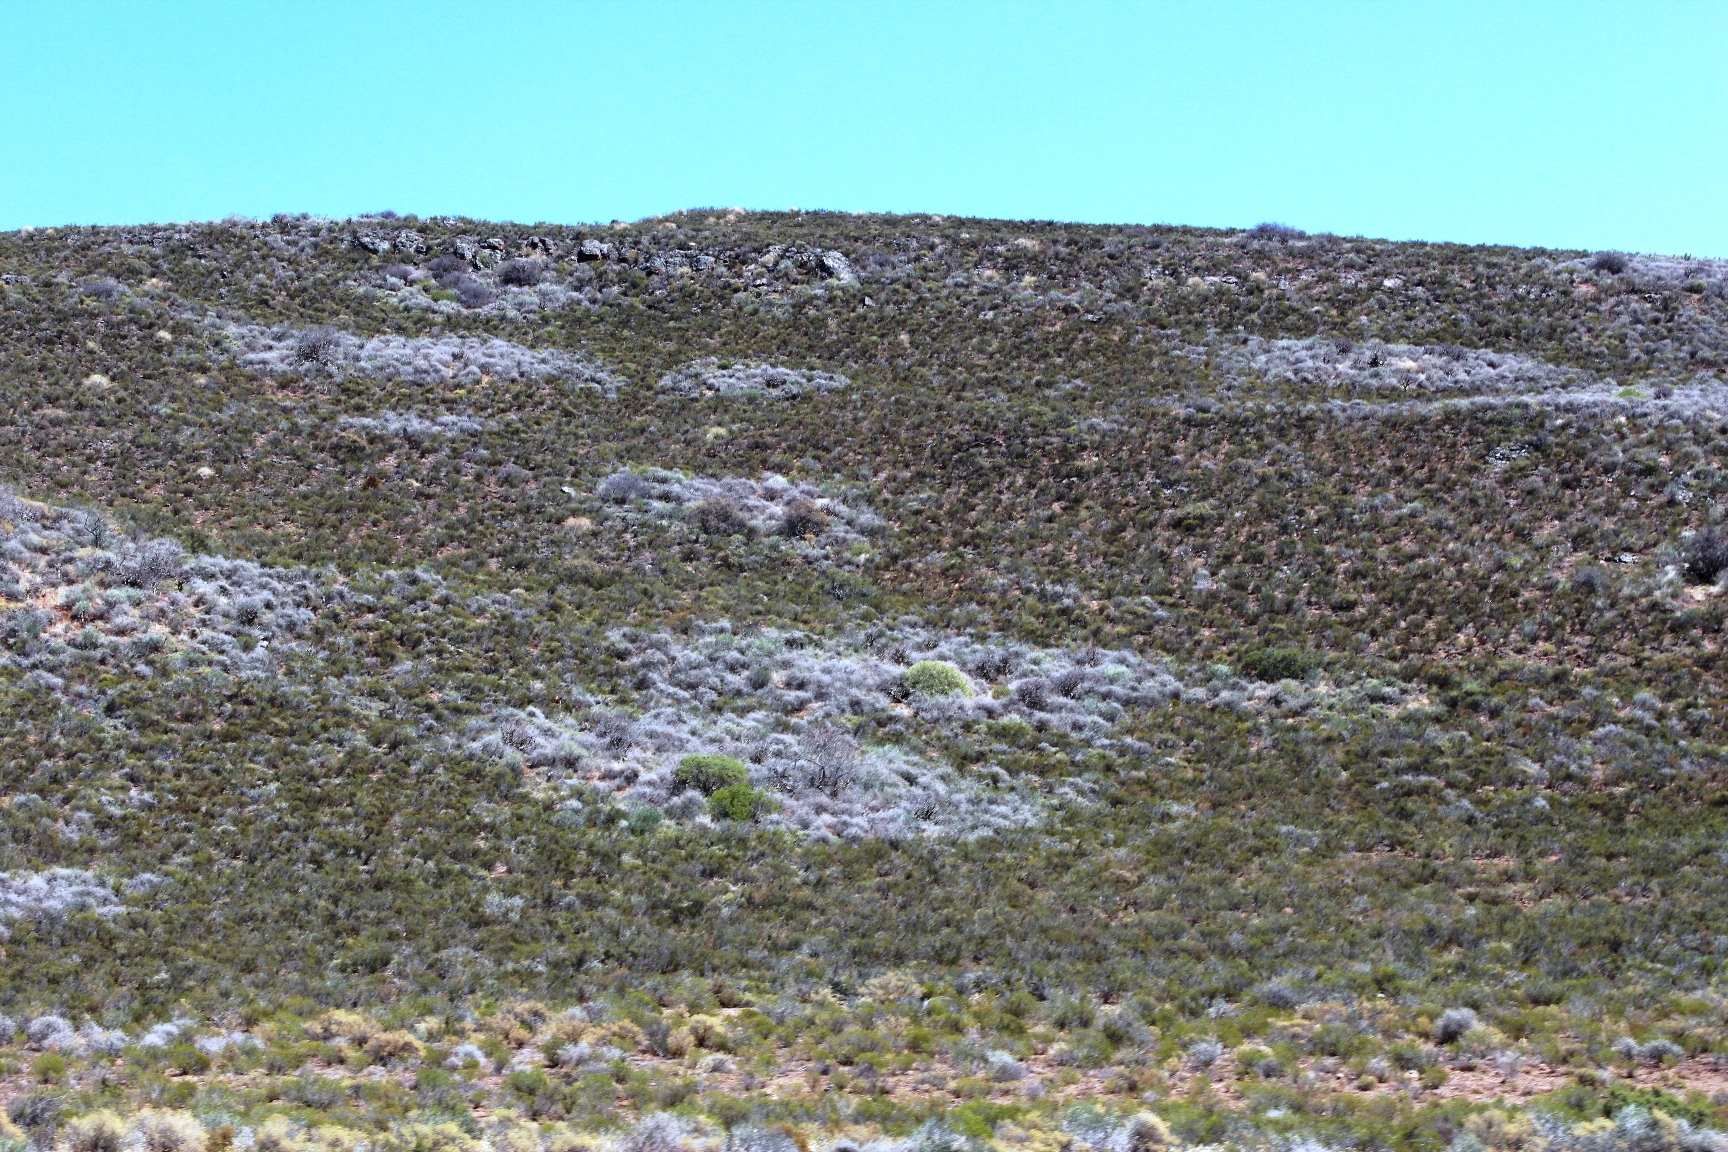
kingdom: Animalia
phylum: Arthropoda
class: Insecta
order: Blattodea
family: Hodotermitidae
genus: Microhodotermes
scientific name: Microhodotermes viator
